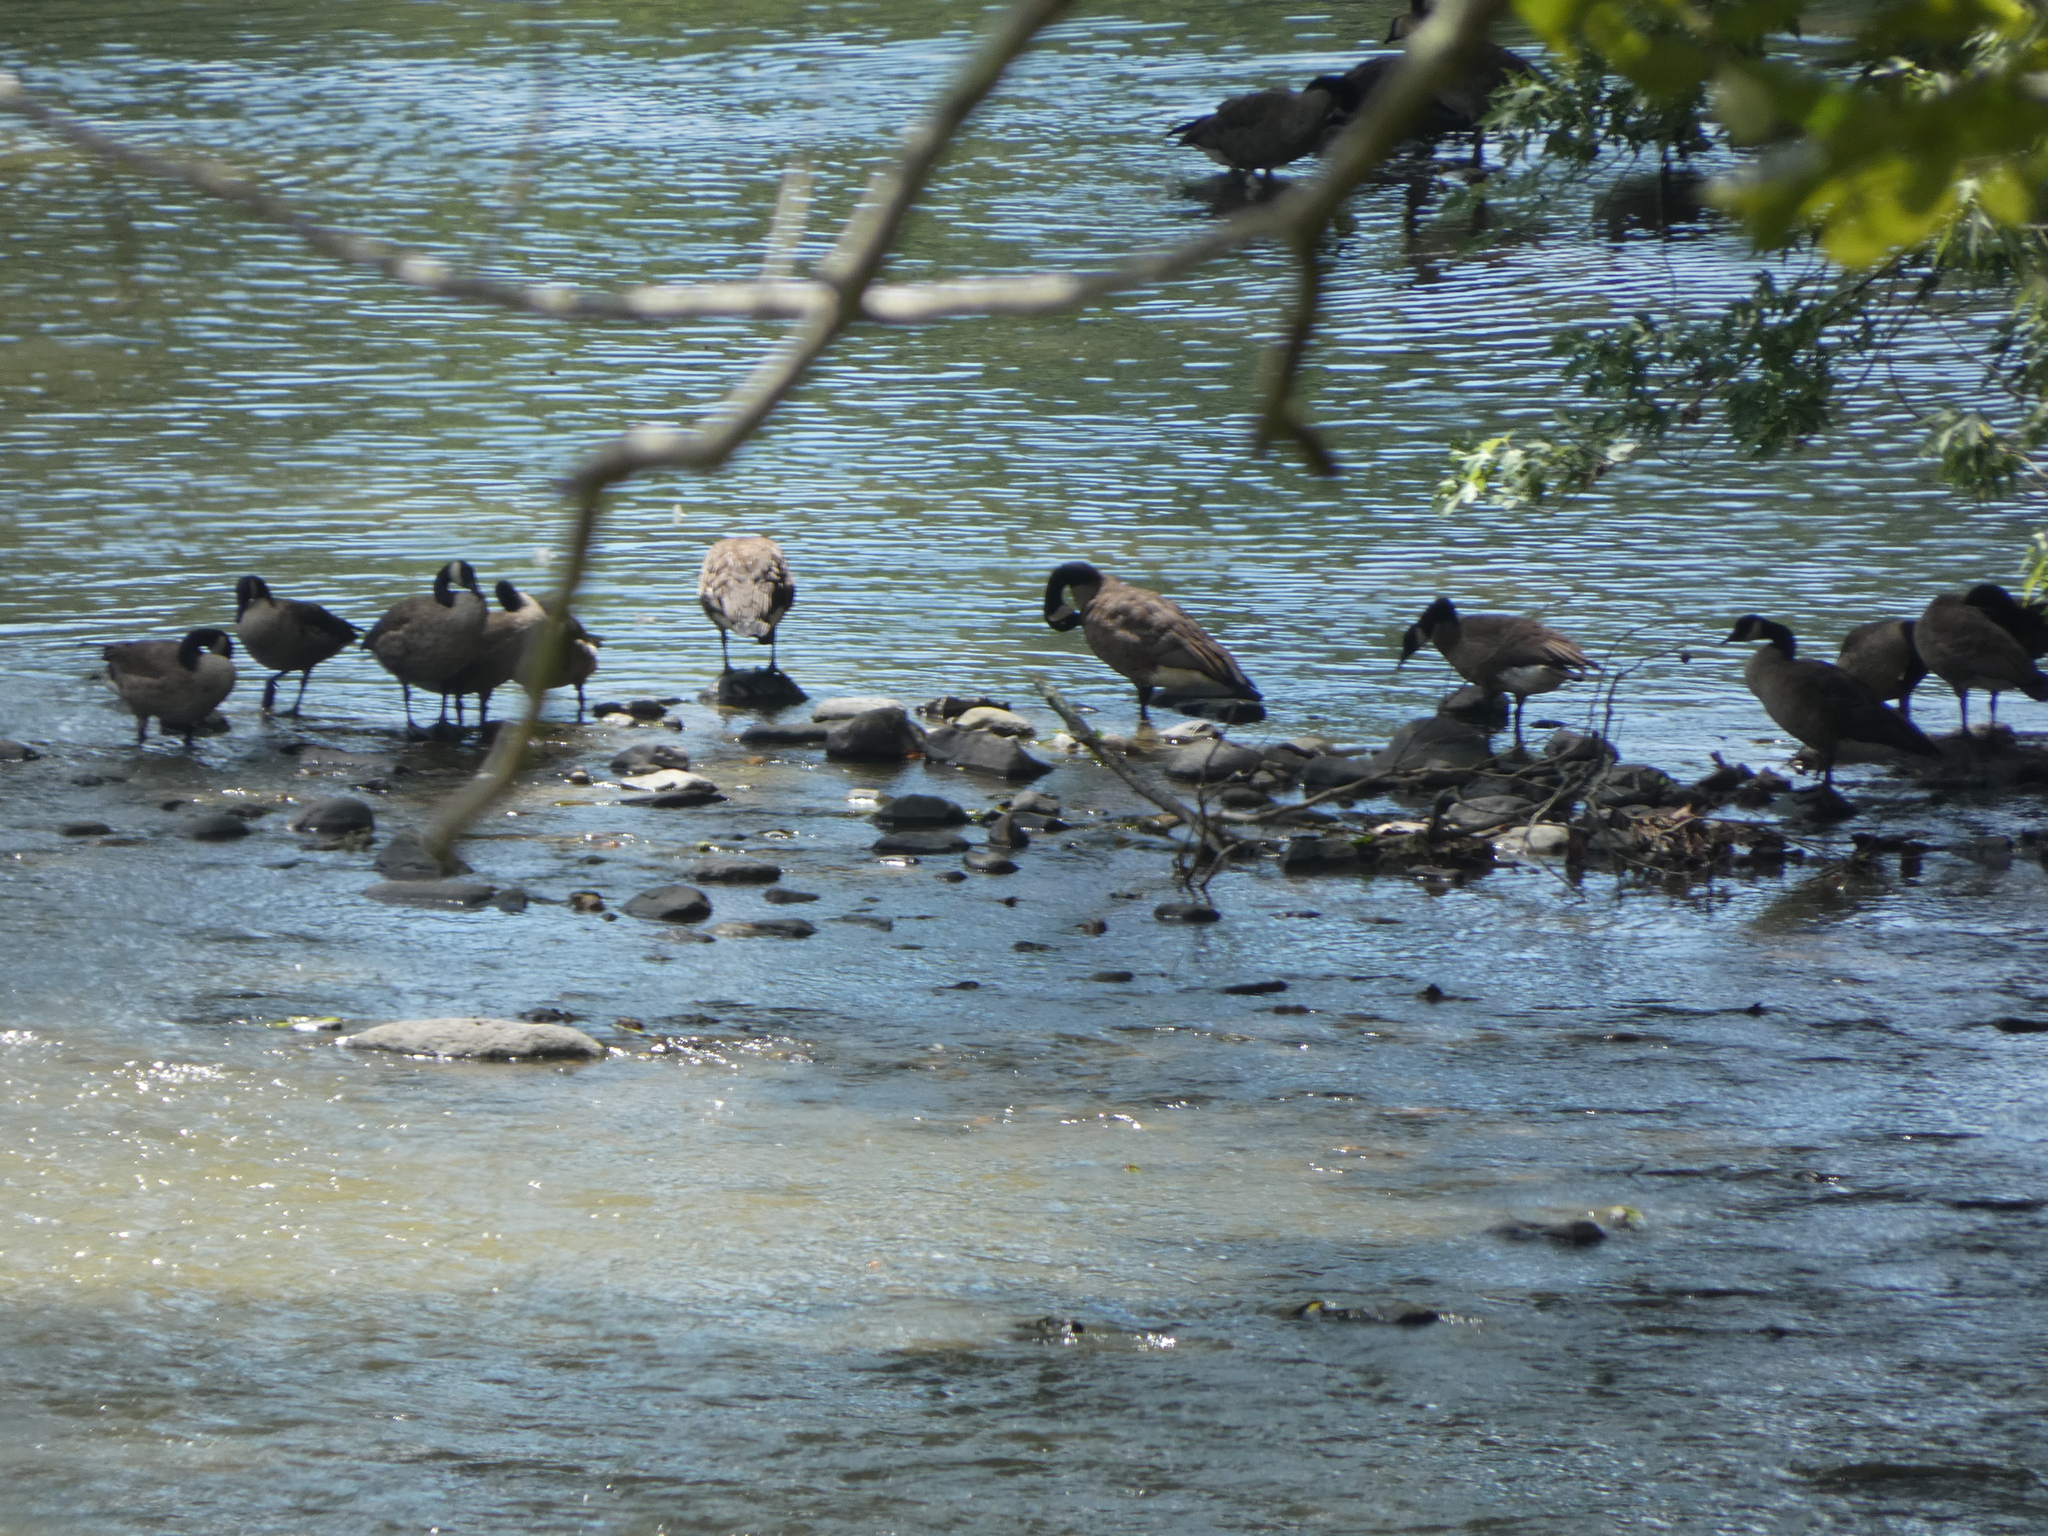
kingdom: Animalia
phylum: Chordata
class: Aves
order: Anseriformes
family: Anatidae
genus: Branta
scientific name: Branta canadensis
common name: Canada goose
